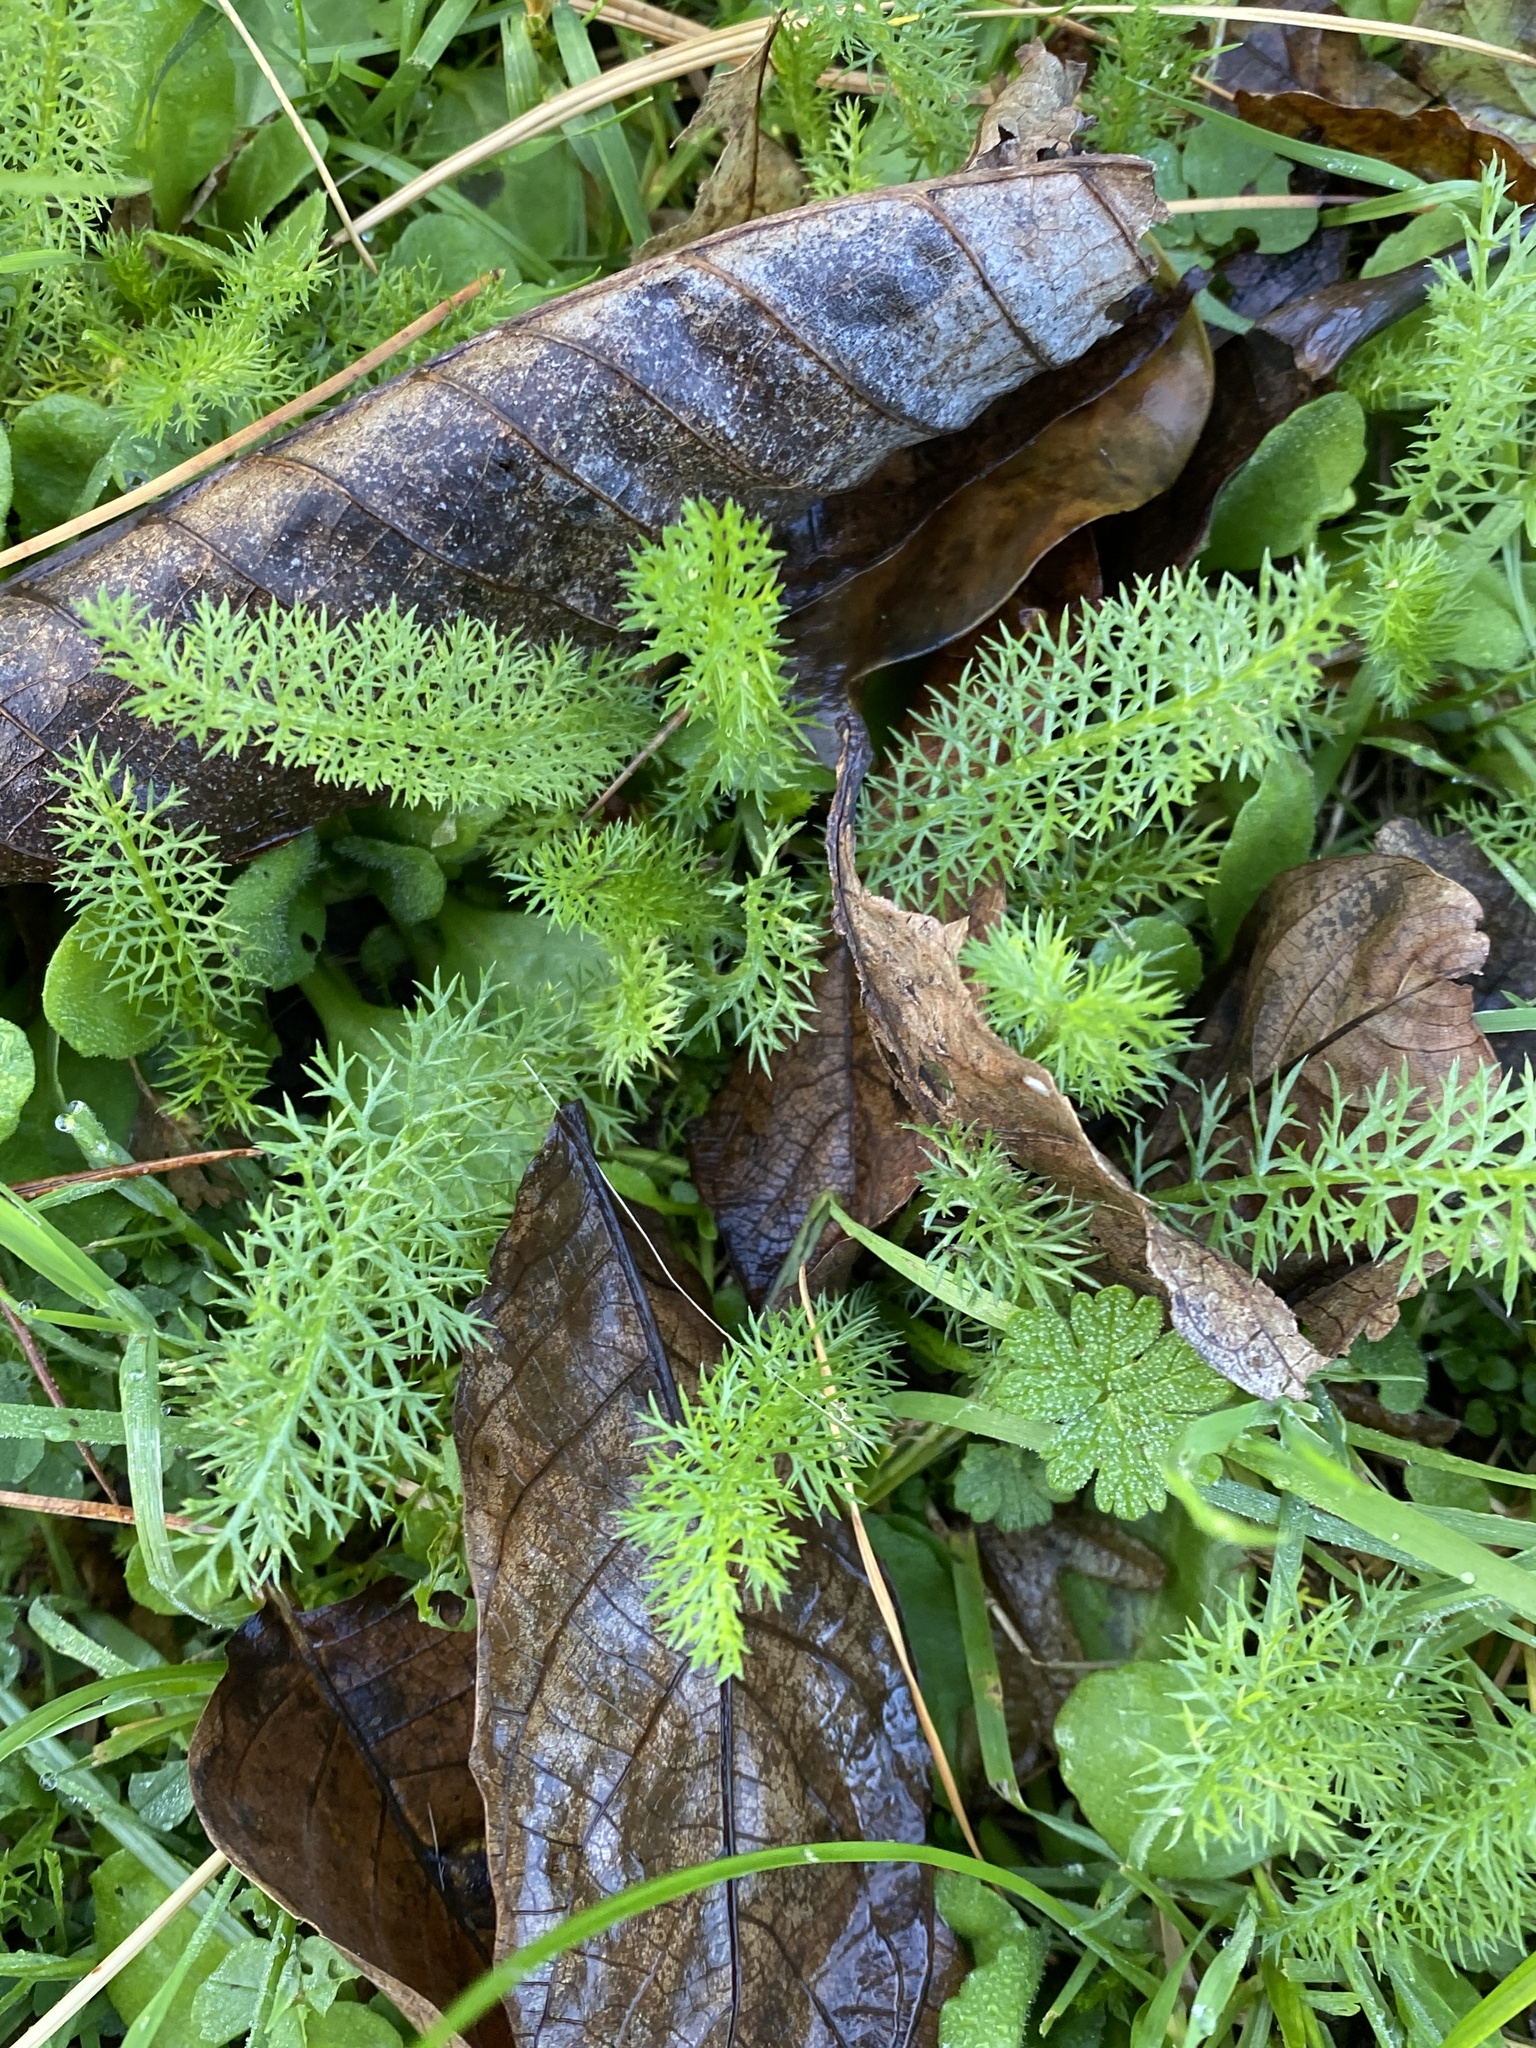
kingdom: Plantae
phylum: Tracheophyta
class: Magnoliopsida
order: Asterales
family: Asteraceae
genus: Achillea
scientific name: Achillea millefolium
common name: Yarrow
